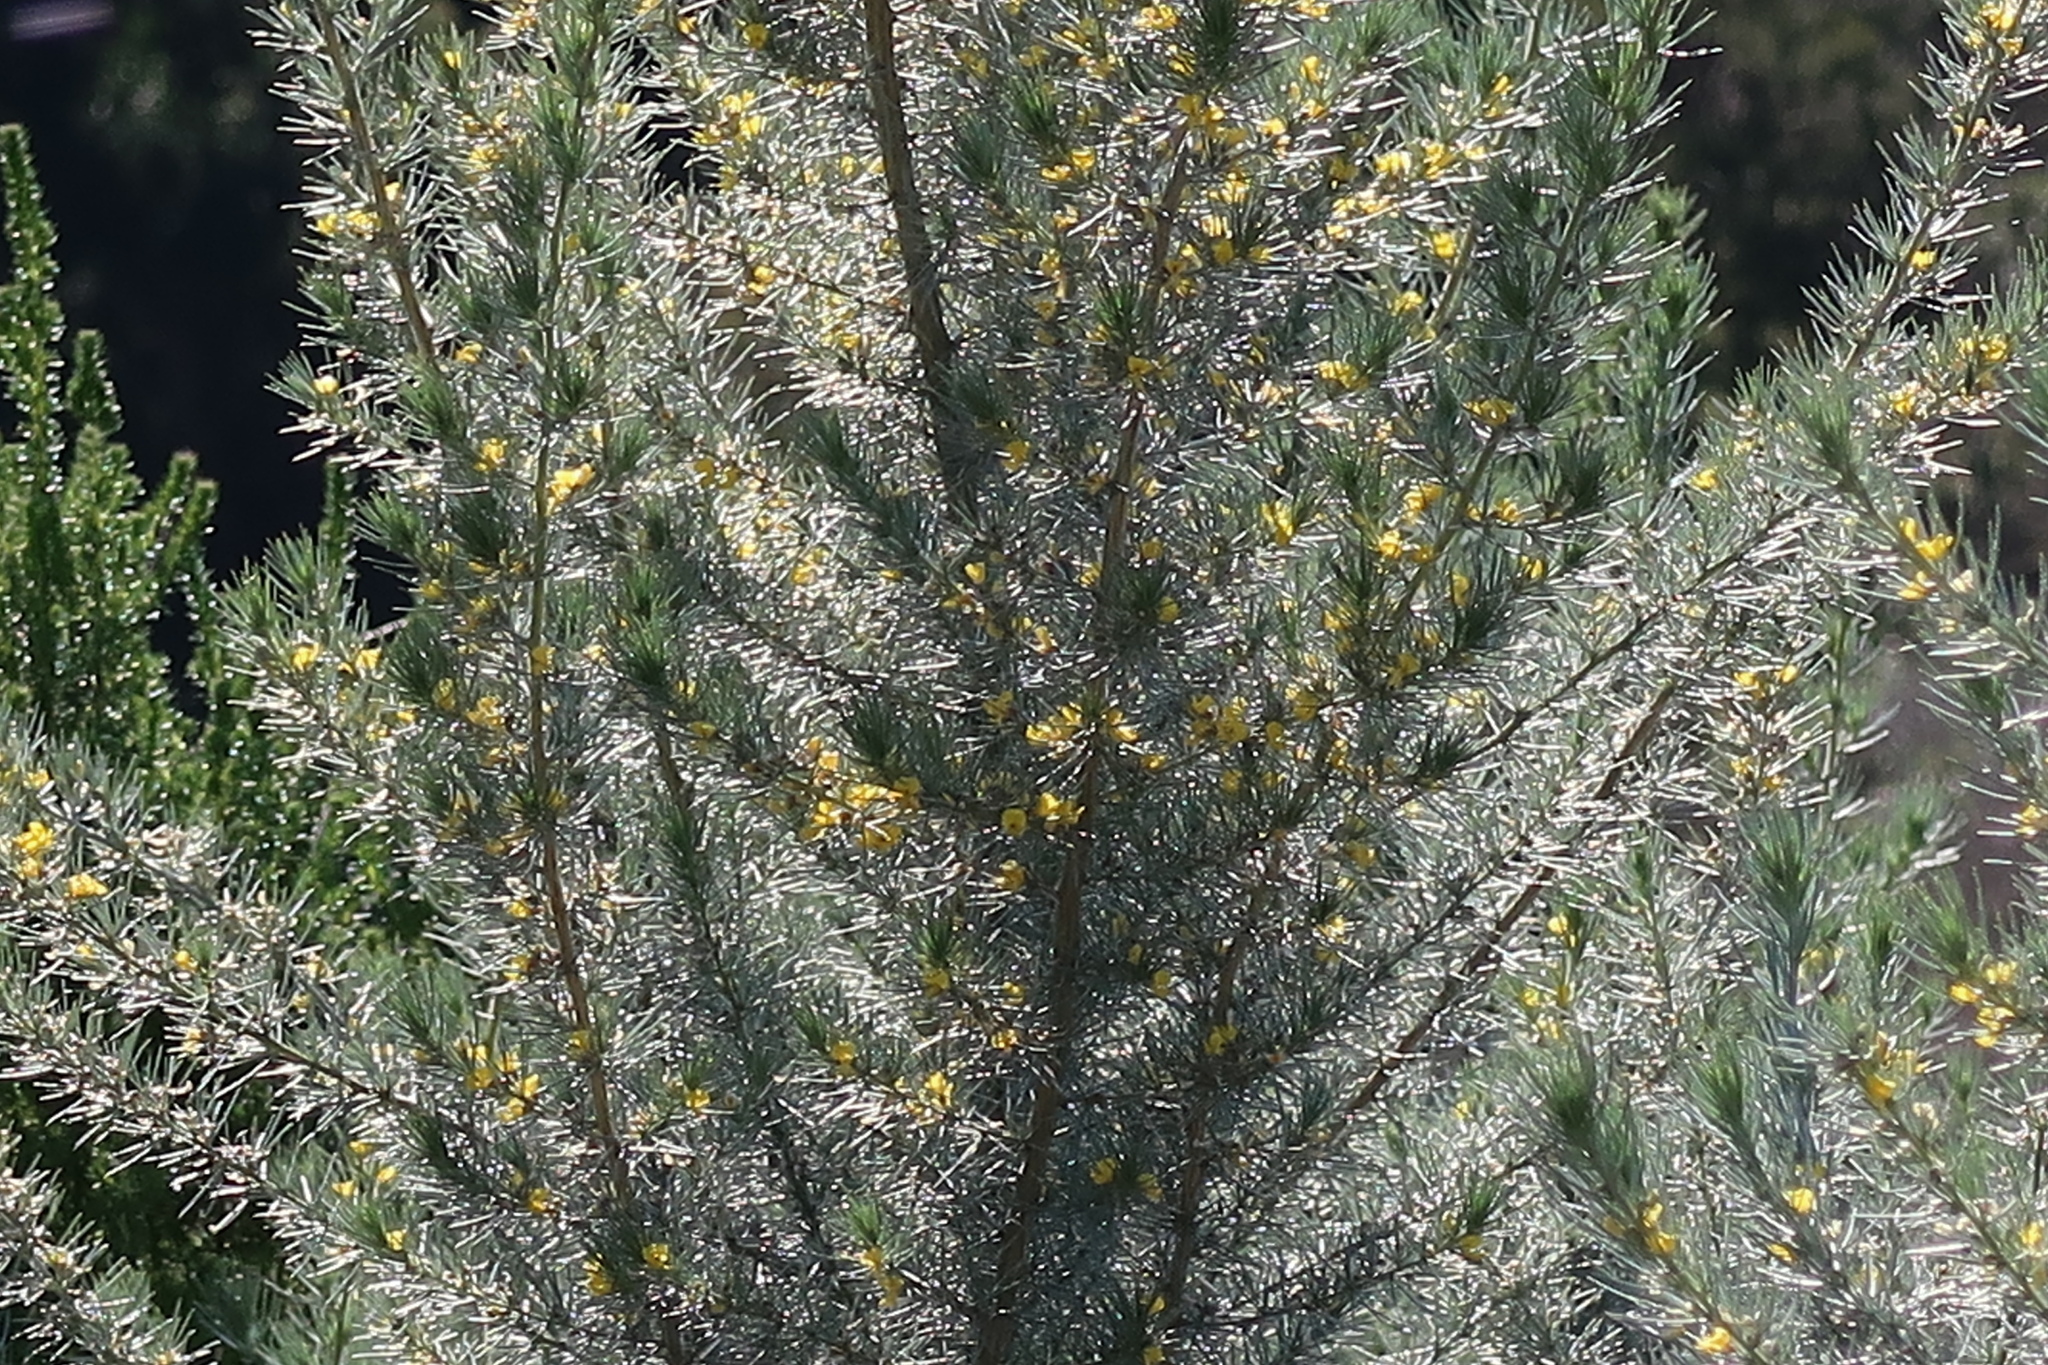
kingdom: Plantae
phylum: Tracheophyta
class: Magnoliopsida
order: Fabales
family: Fabaceae
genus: Aspalathus
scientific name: Aspalathus florifera
